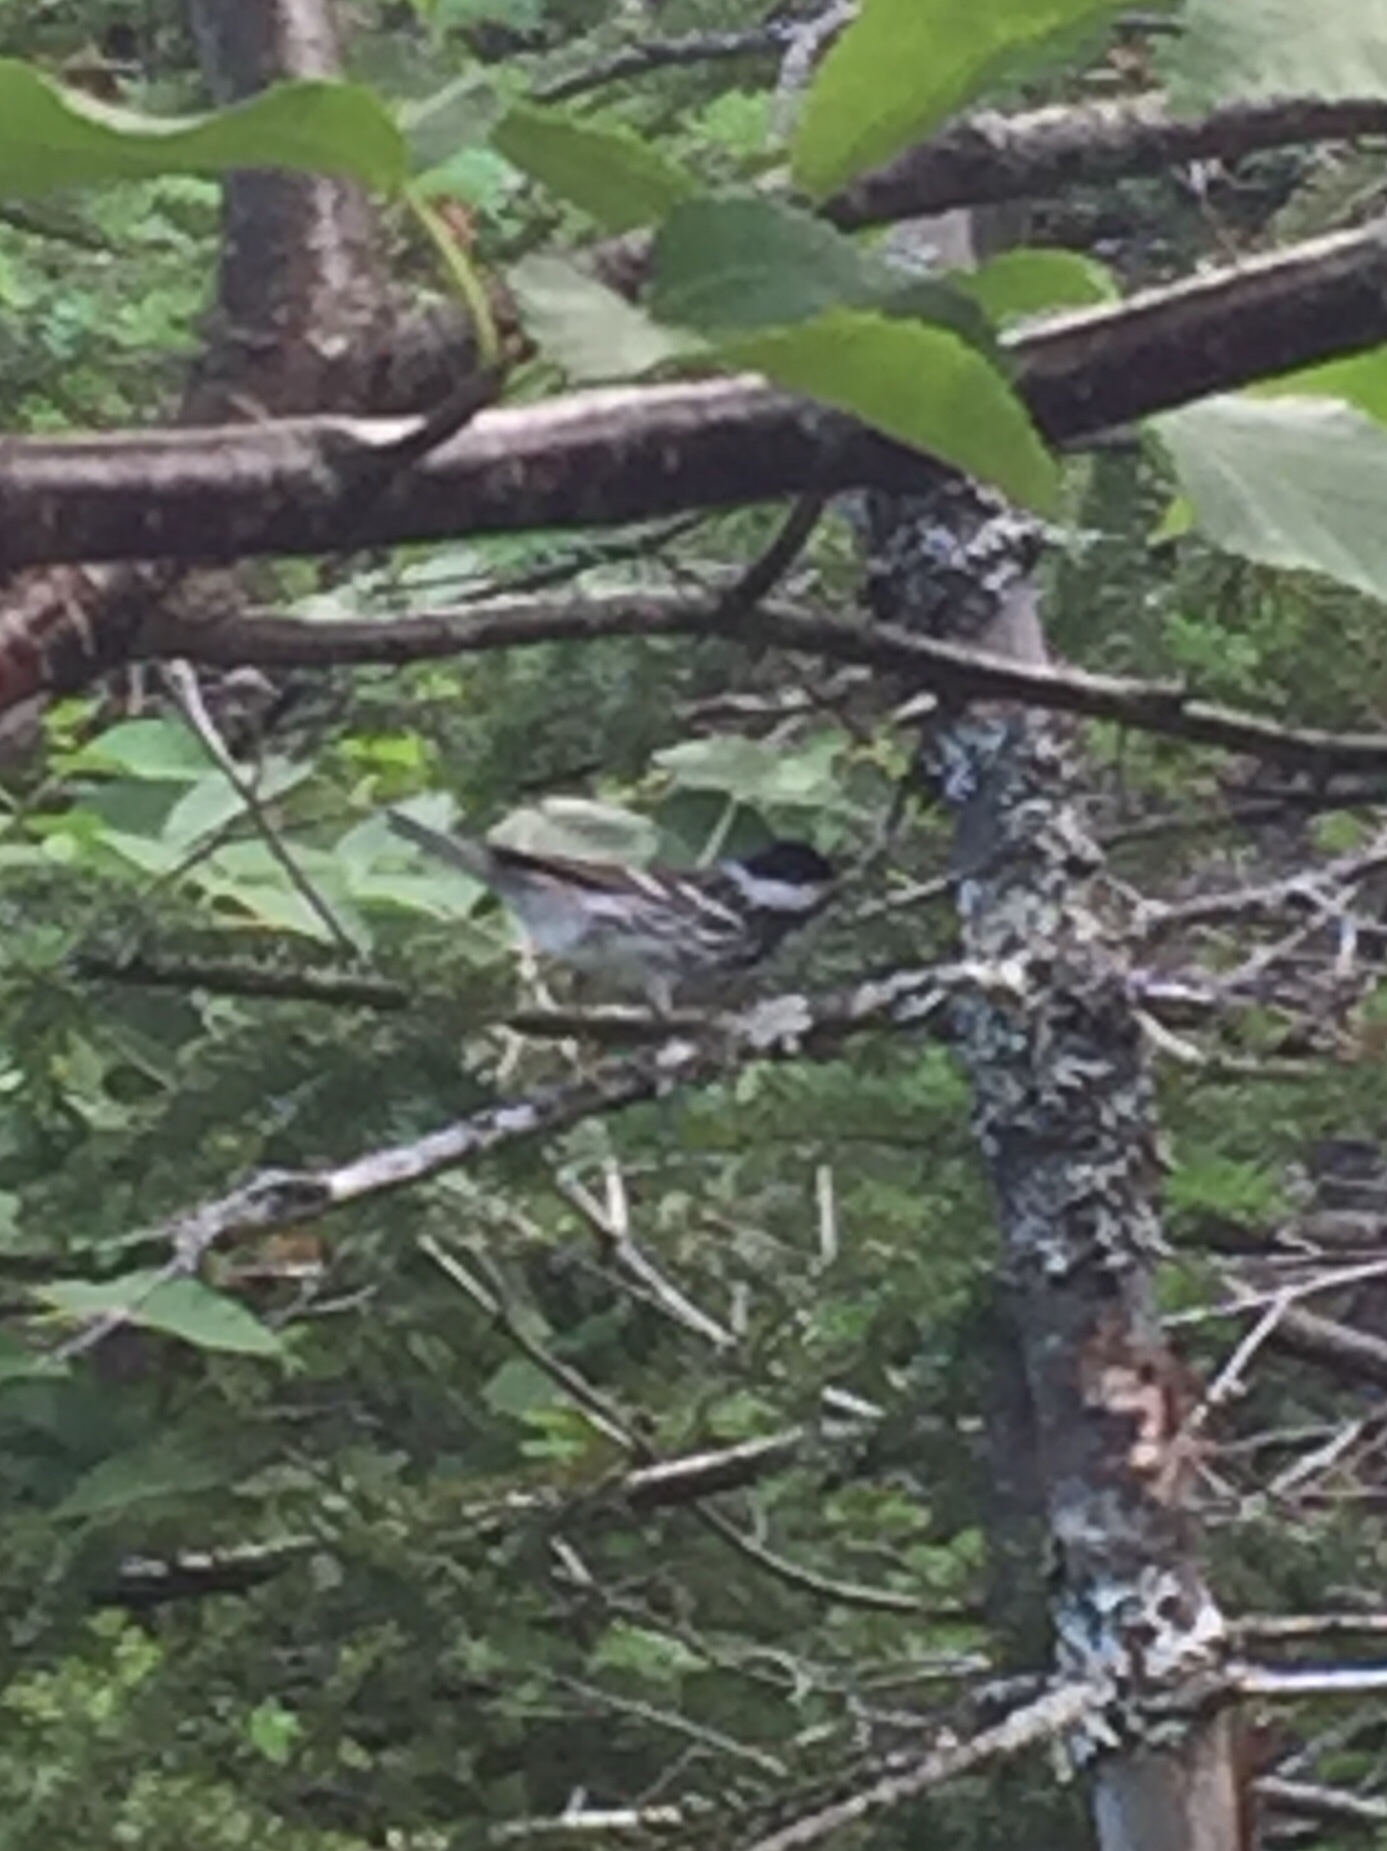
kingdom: Animalia
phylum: Chordata
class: Aves
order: Passeriformes
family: Parulidae
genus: Setophaga
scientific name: Setophaga striata
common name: Blackpoll warbler
